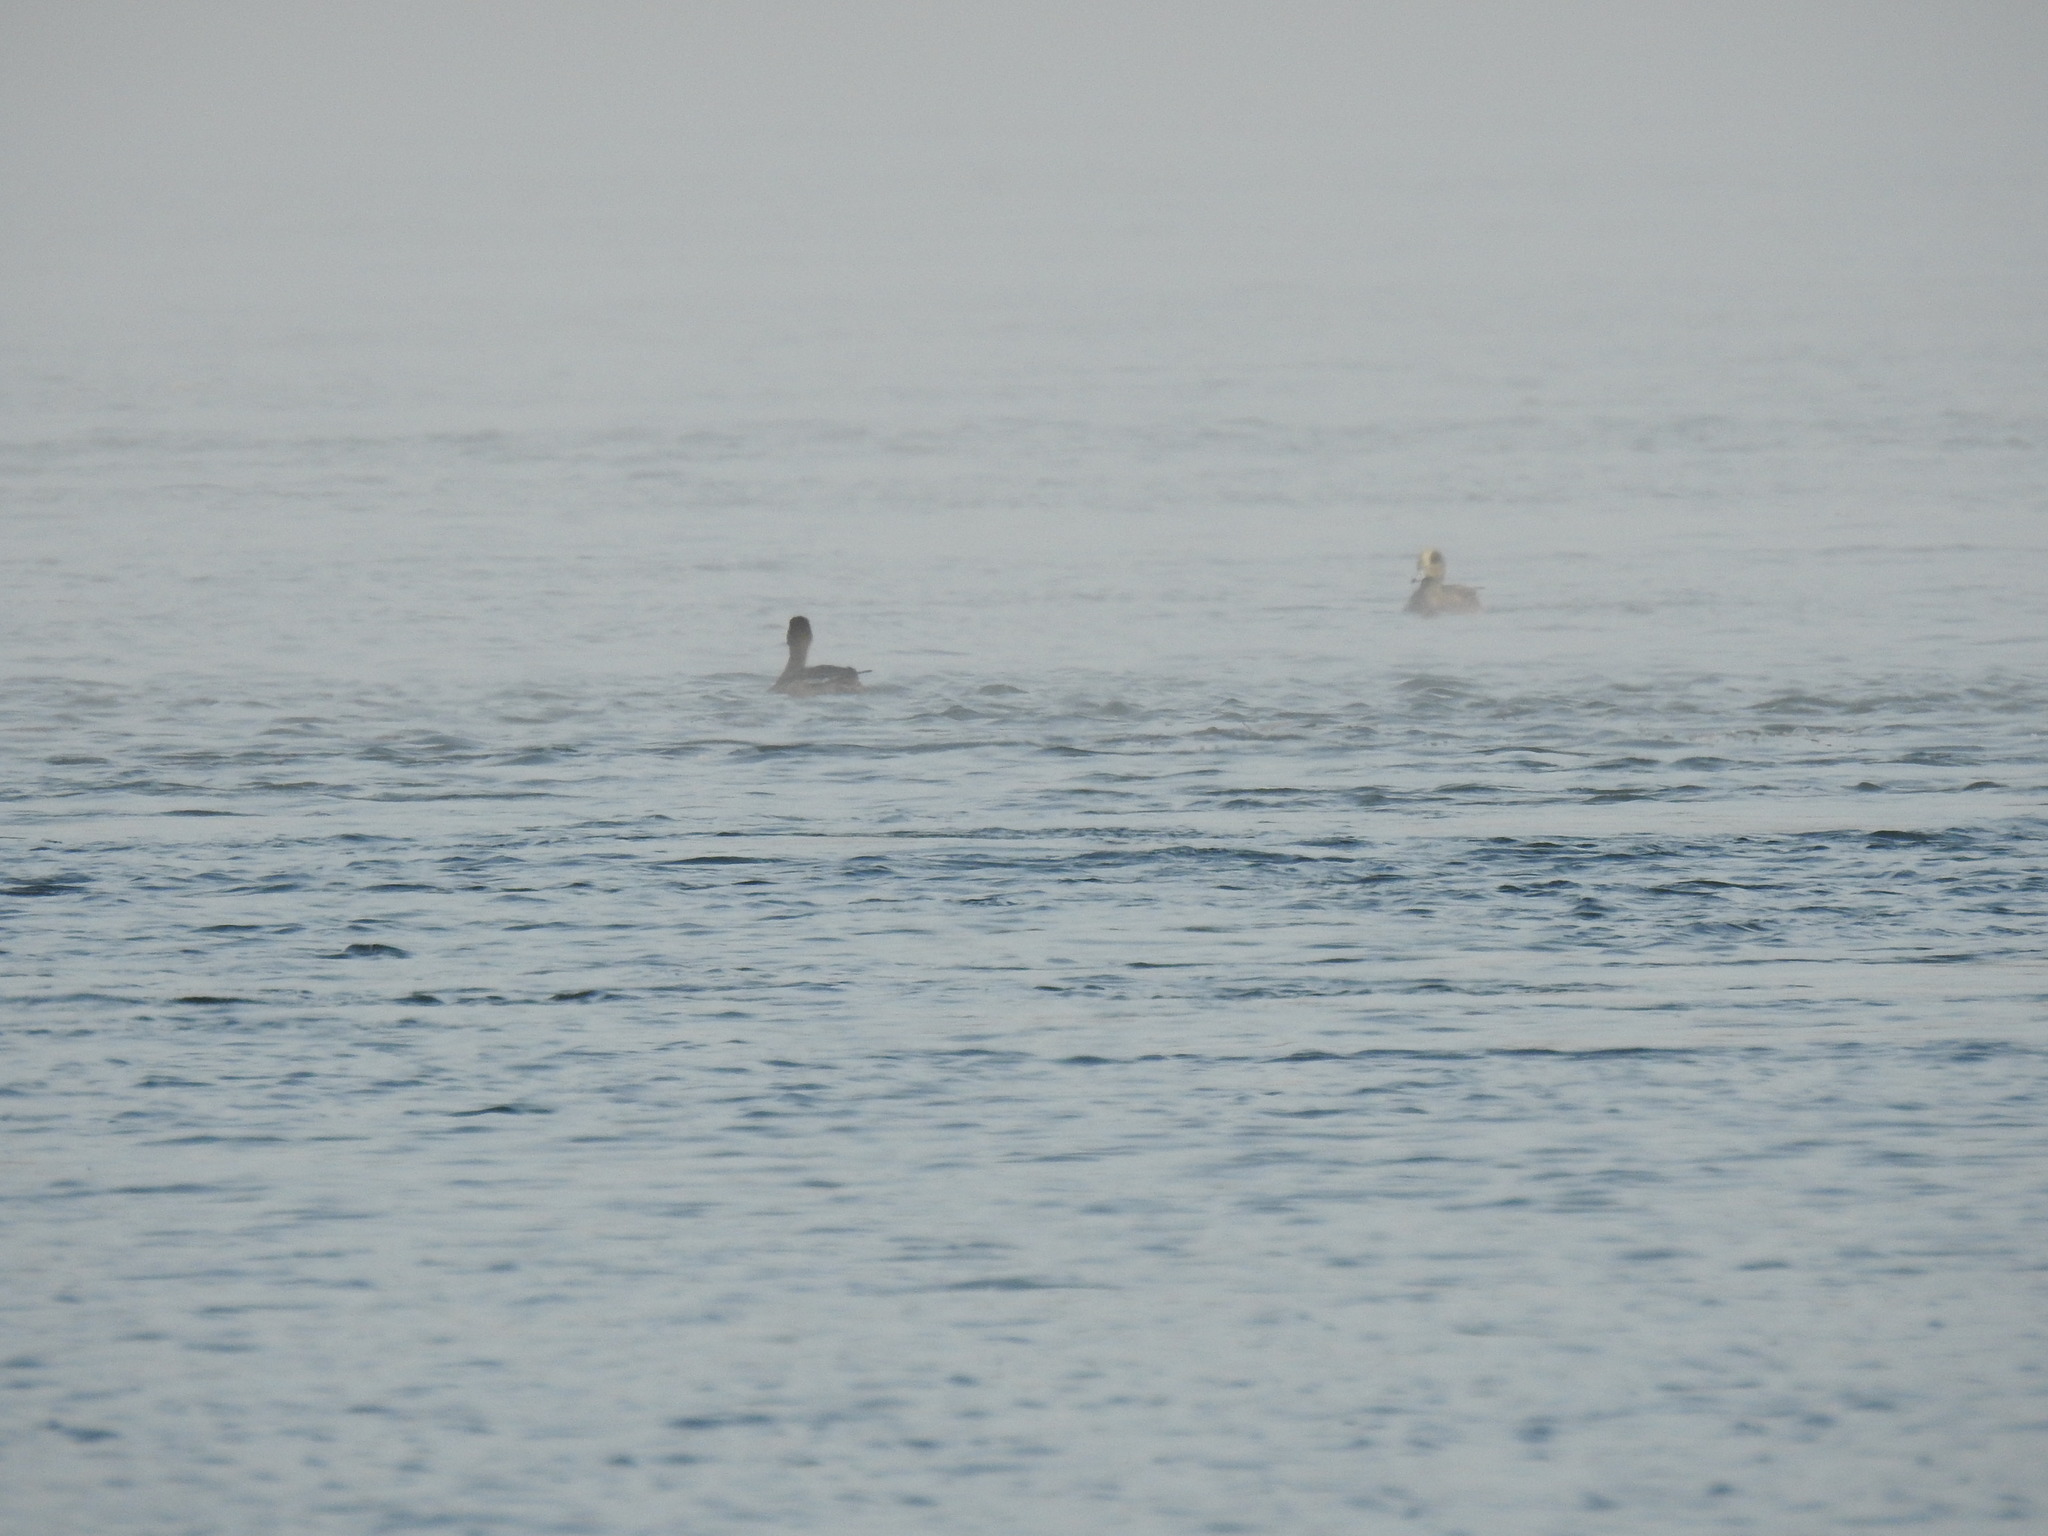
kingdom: Animalia
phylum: Chordata
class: Aves
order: Anseriformes
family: Anatidae
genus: Mareca
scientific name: Mareca americana
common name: American wigeon
